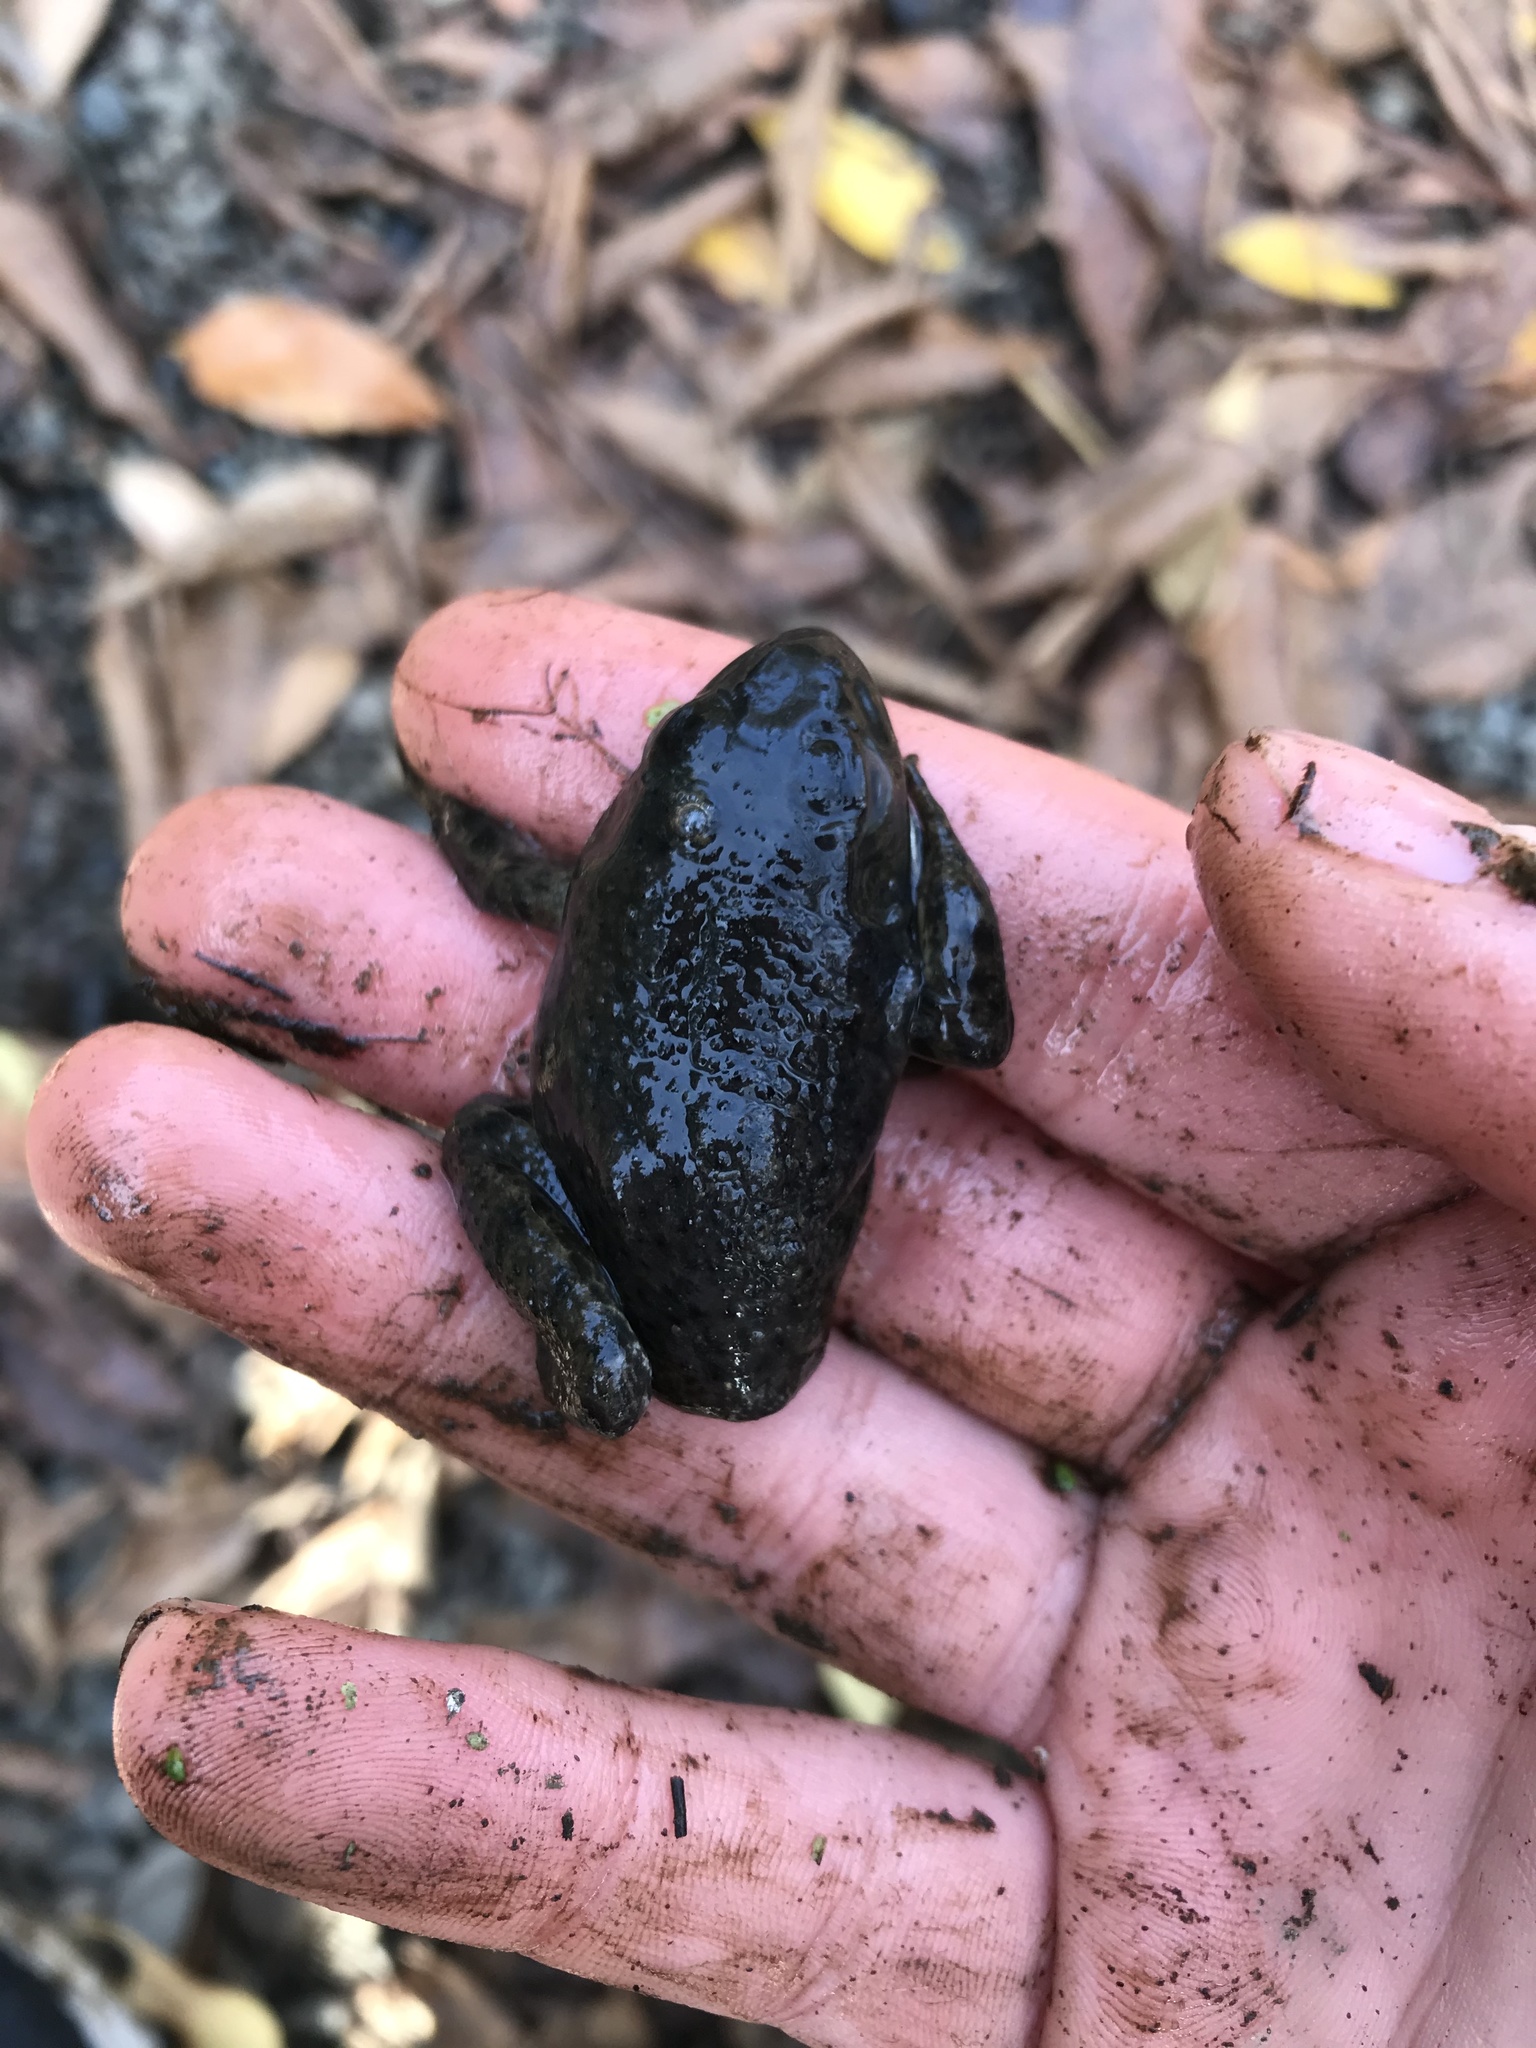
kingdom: Animalia
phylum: Chordata
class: Amphibia
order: Anura
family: Ranidae
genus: Lithobates
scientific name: Lithobates catesbeianus
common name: American bullfrog
